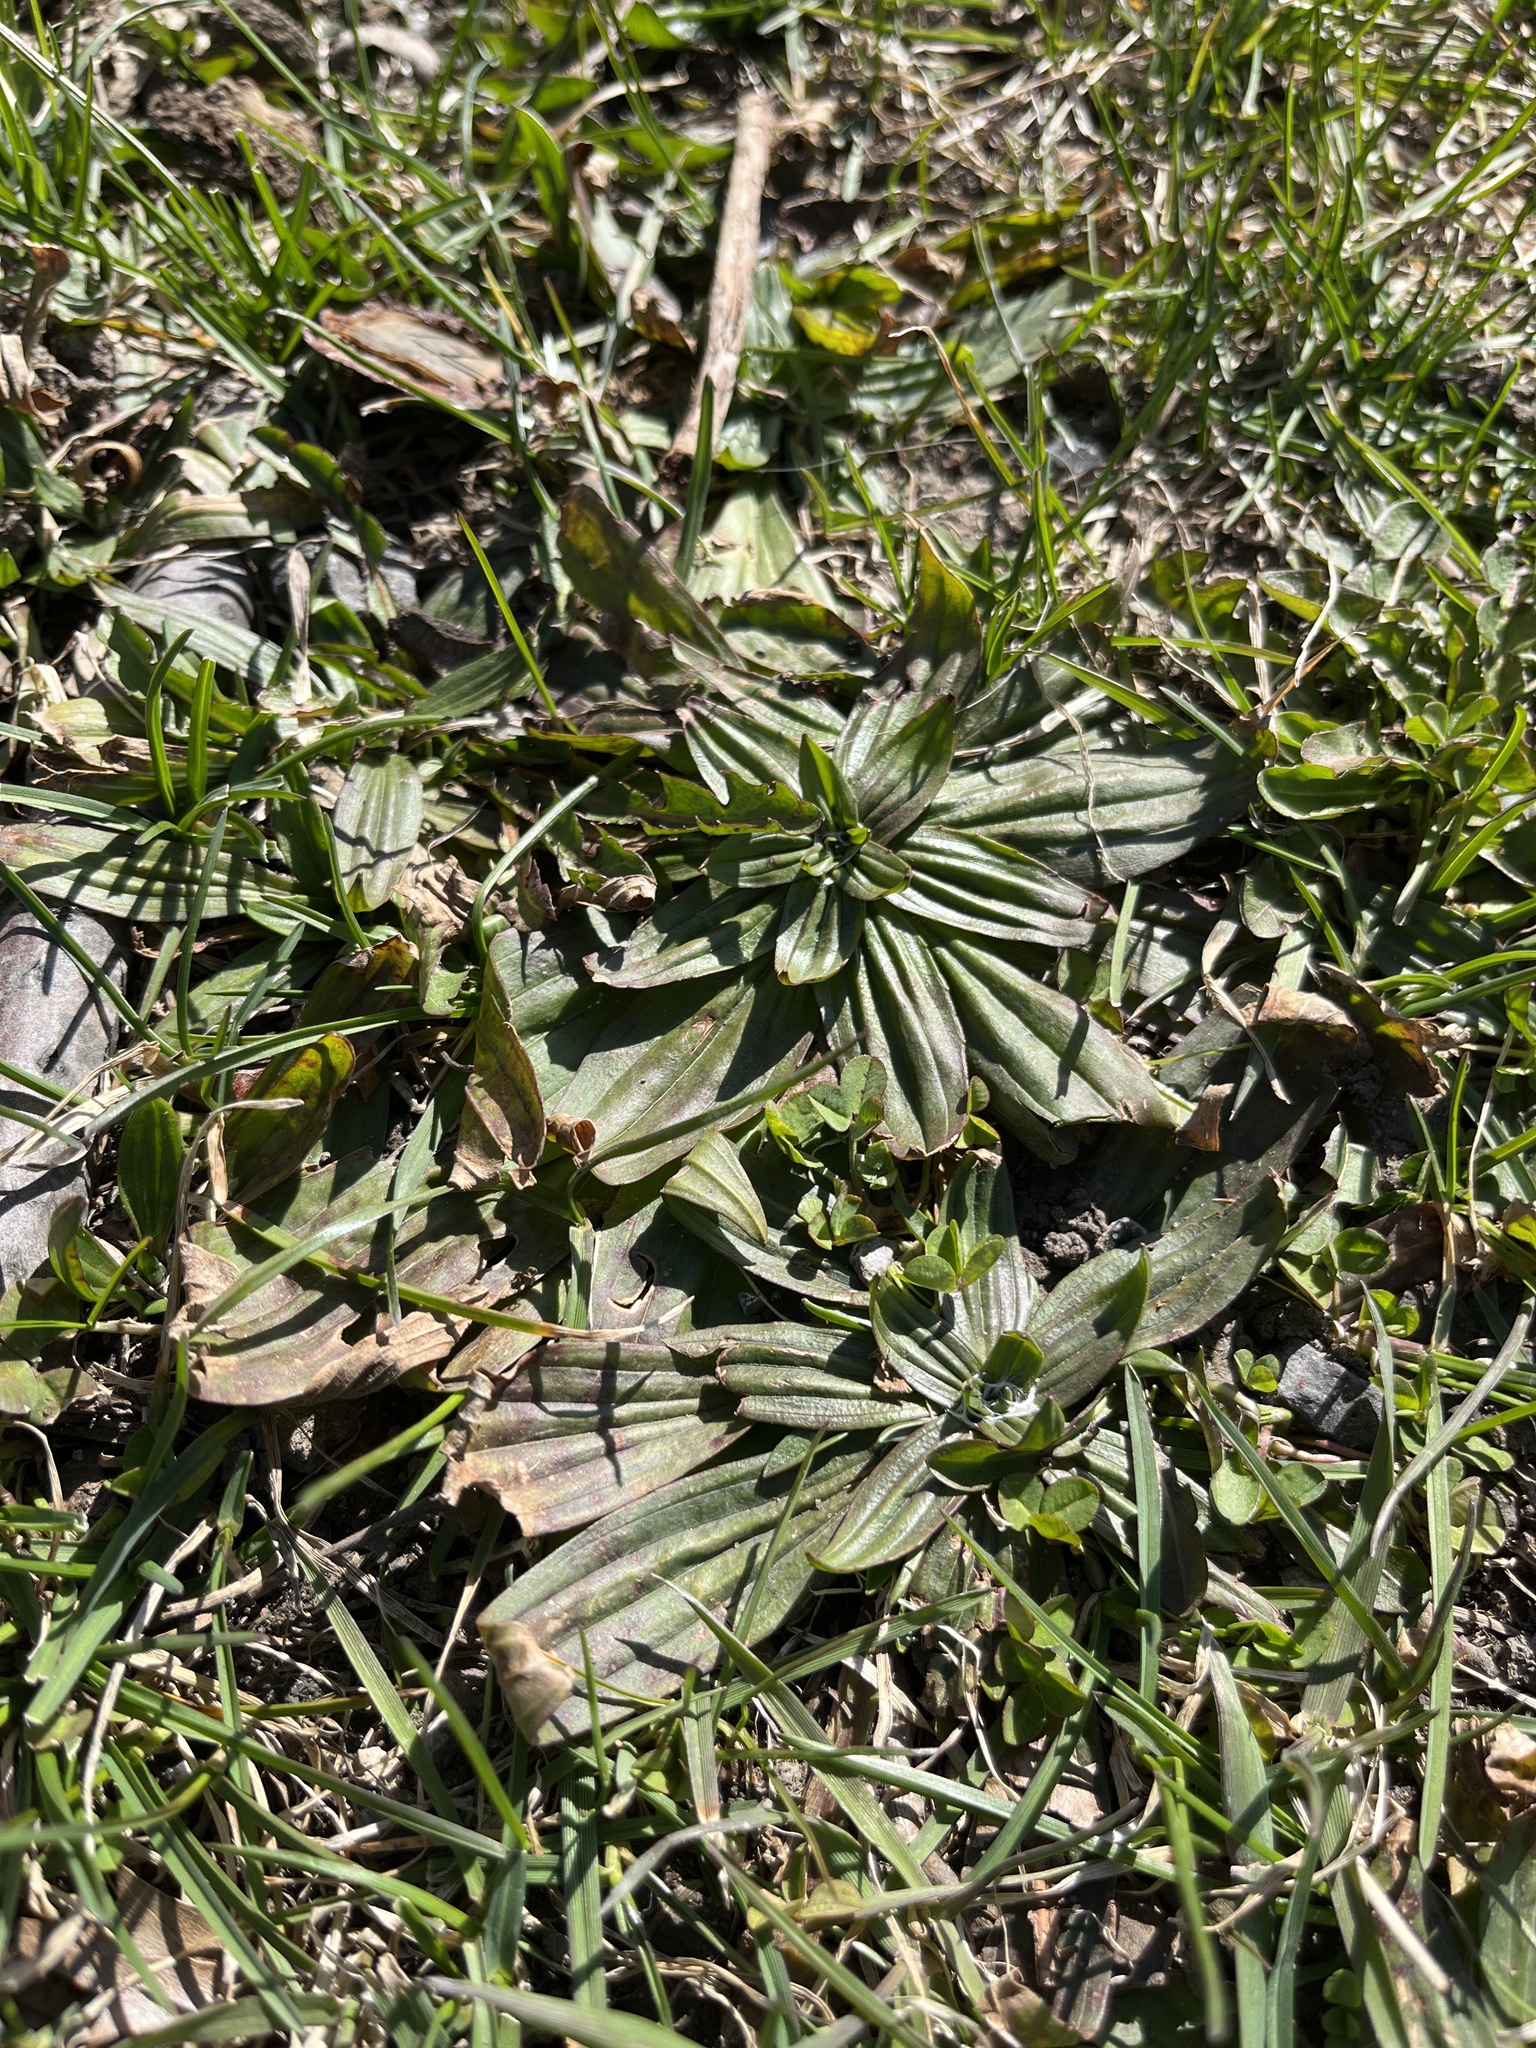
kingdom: Plantae
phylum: Tracheophyta
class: Magnoliopsida
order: Lamiales
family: Plantaginaceae
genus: Plantago
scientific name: Plantago lanceolata
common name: Ribwort plantain
